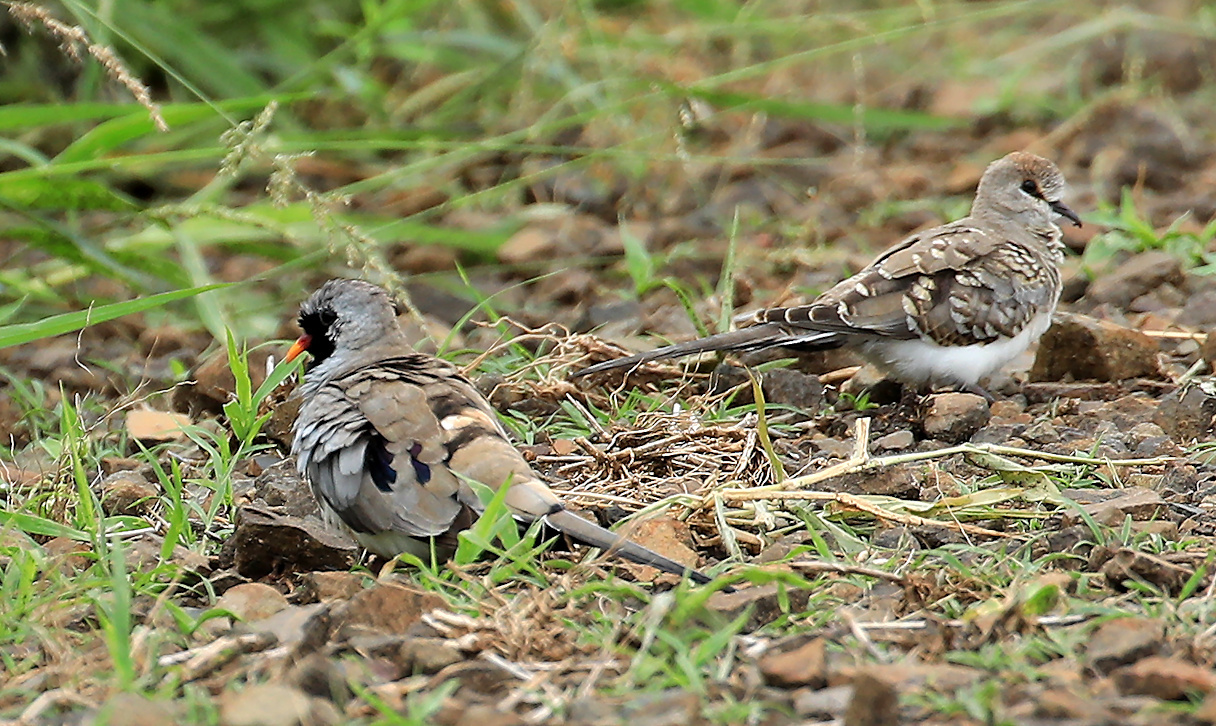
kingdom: Animalia
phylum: Chordata
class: Aves
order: Columbiformes
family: Columbidae
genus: Oena
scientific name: Oena capensis
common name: Namaqua dove
